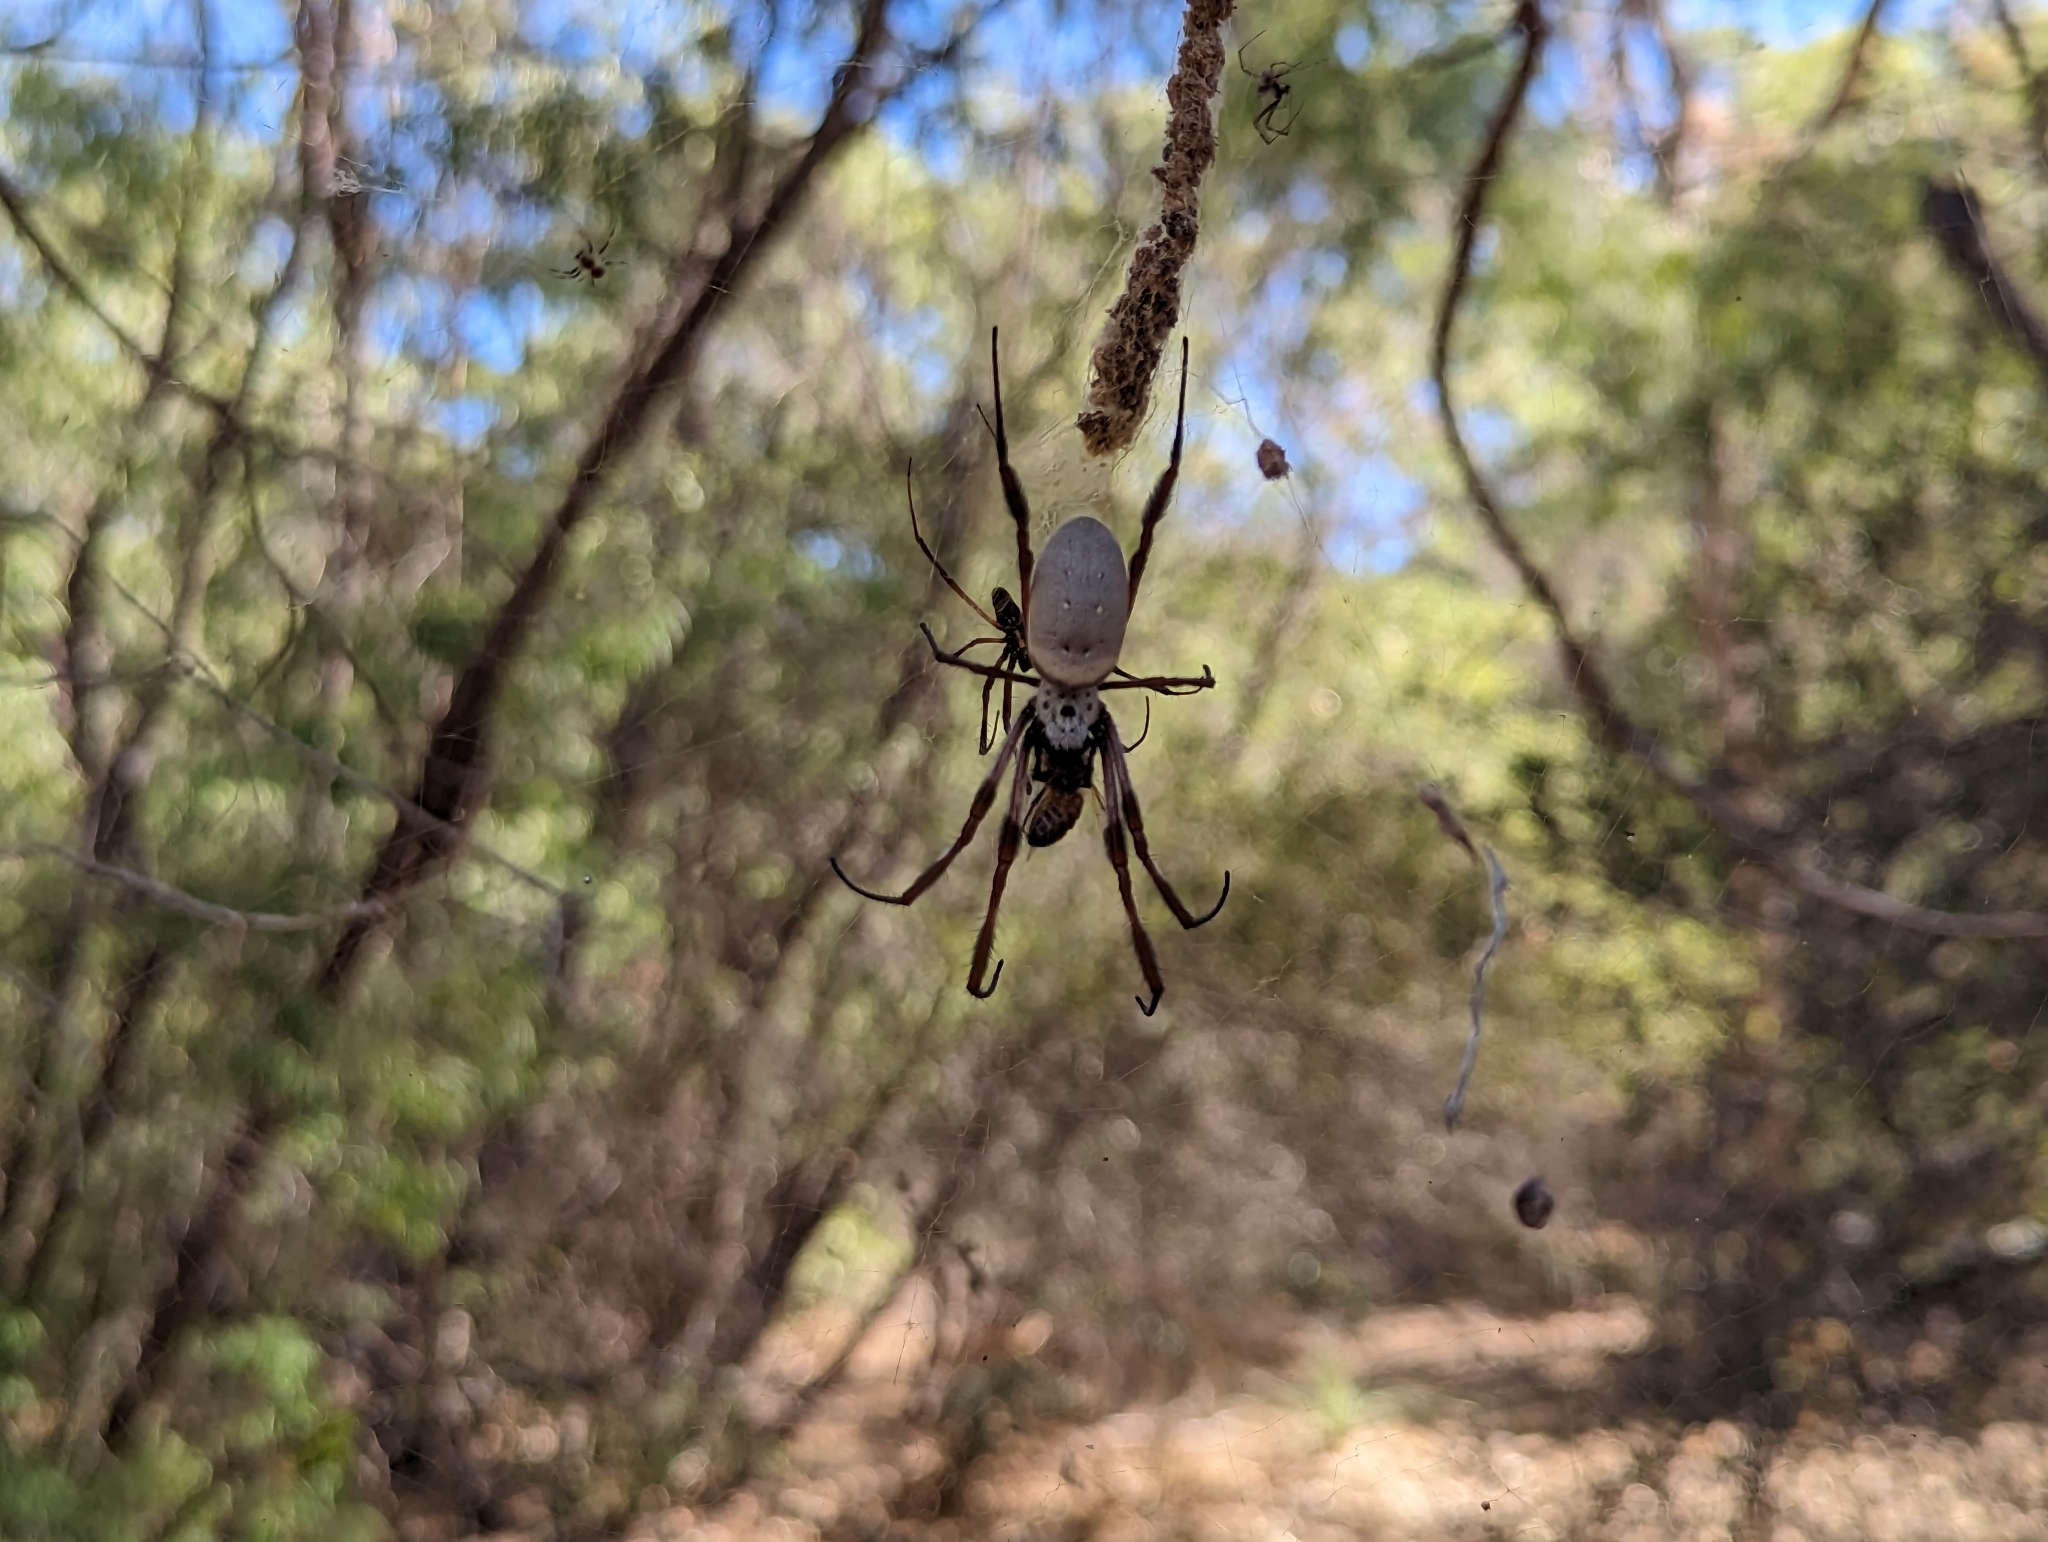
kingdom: Animalia
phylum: Arthropoda
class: Arachnida
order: Araneae
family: Araneidae
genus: Trichonephila
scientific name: Trichonephila edulis
